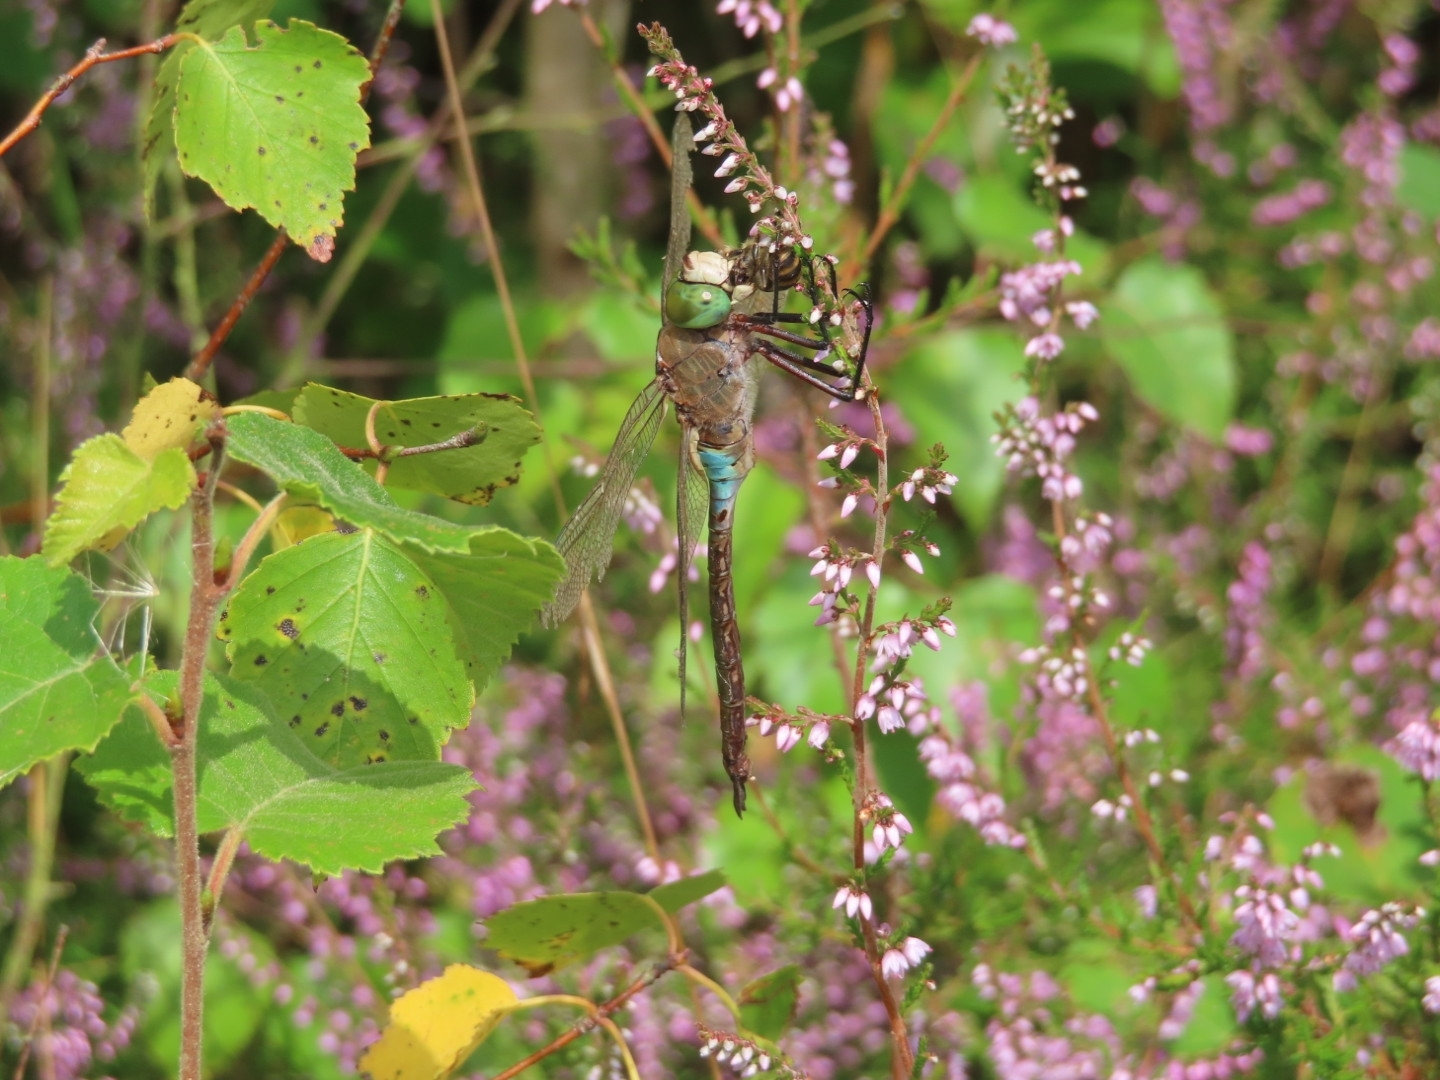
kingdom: Animalia
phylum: Arthropoda
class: Insecta
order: Odonata
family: Aeshnidae
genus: Anax
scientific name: Anax parthenope
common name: Lesser emperor
